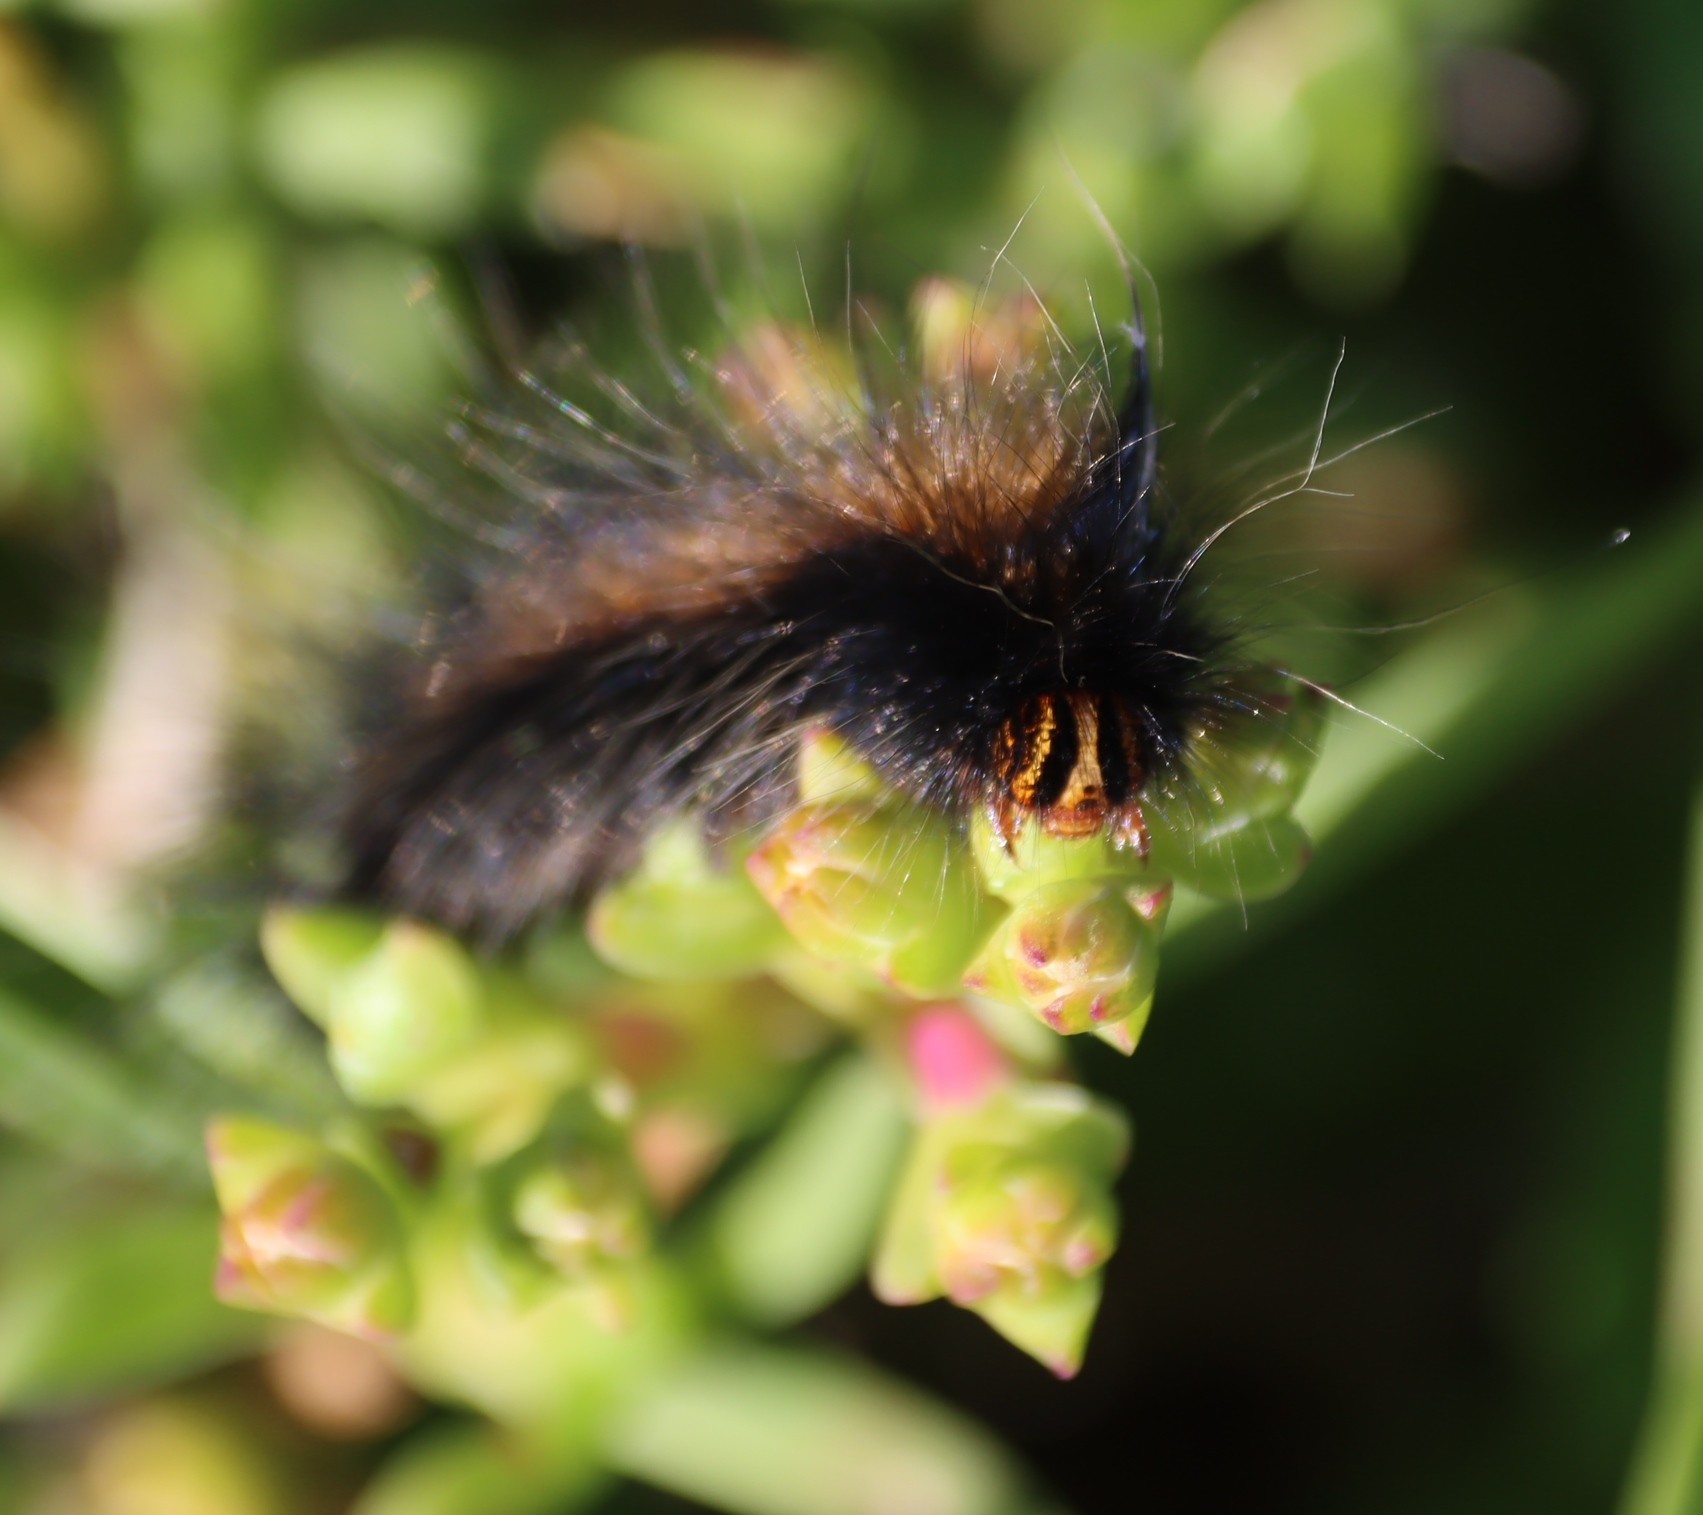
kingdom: Animalia
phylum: Arthropoda
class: Insecta
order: Lepidoptera
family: Lasiocampidae
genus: Mesocelis
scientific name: Mesocelis monticola
